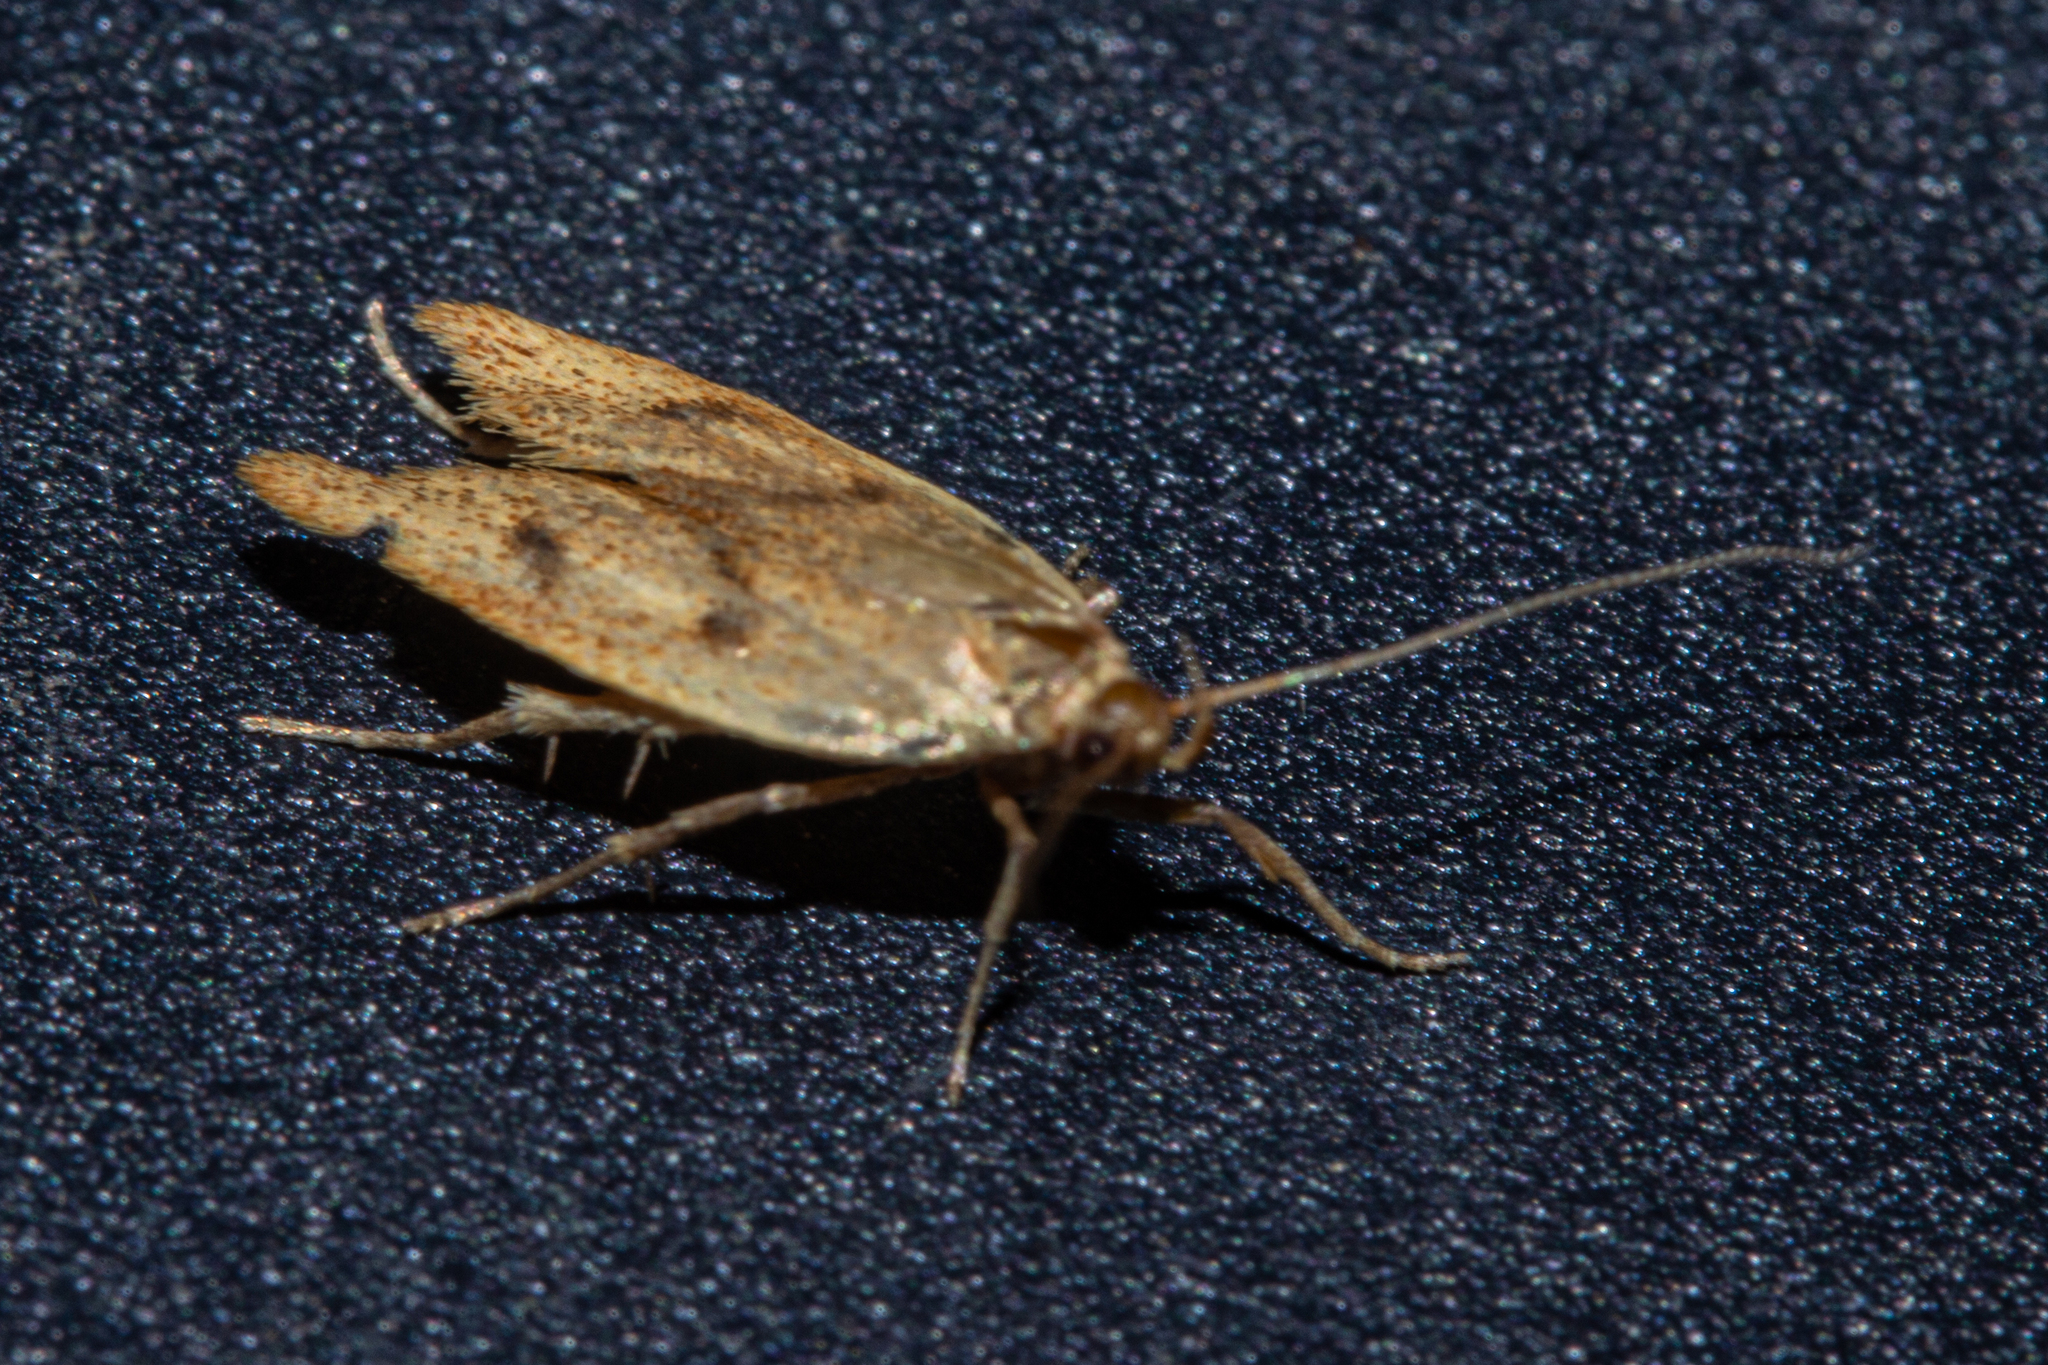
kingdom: Animalia
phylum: Arthropoda
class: Insecta
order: Lepidoptera
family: Oecophoridae
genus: Gymnobathra
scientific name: Gymnobathra sarcoxantha
